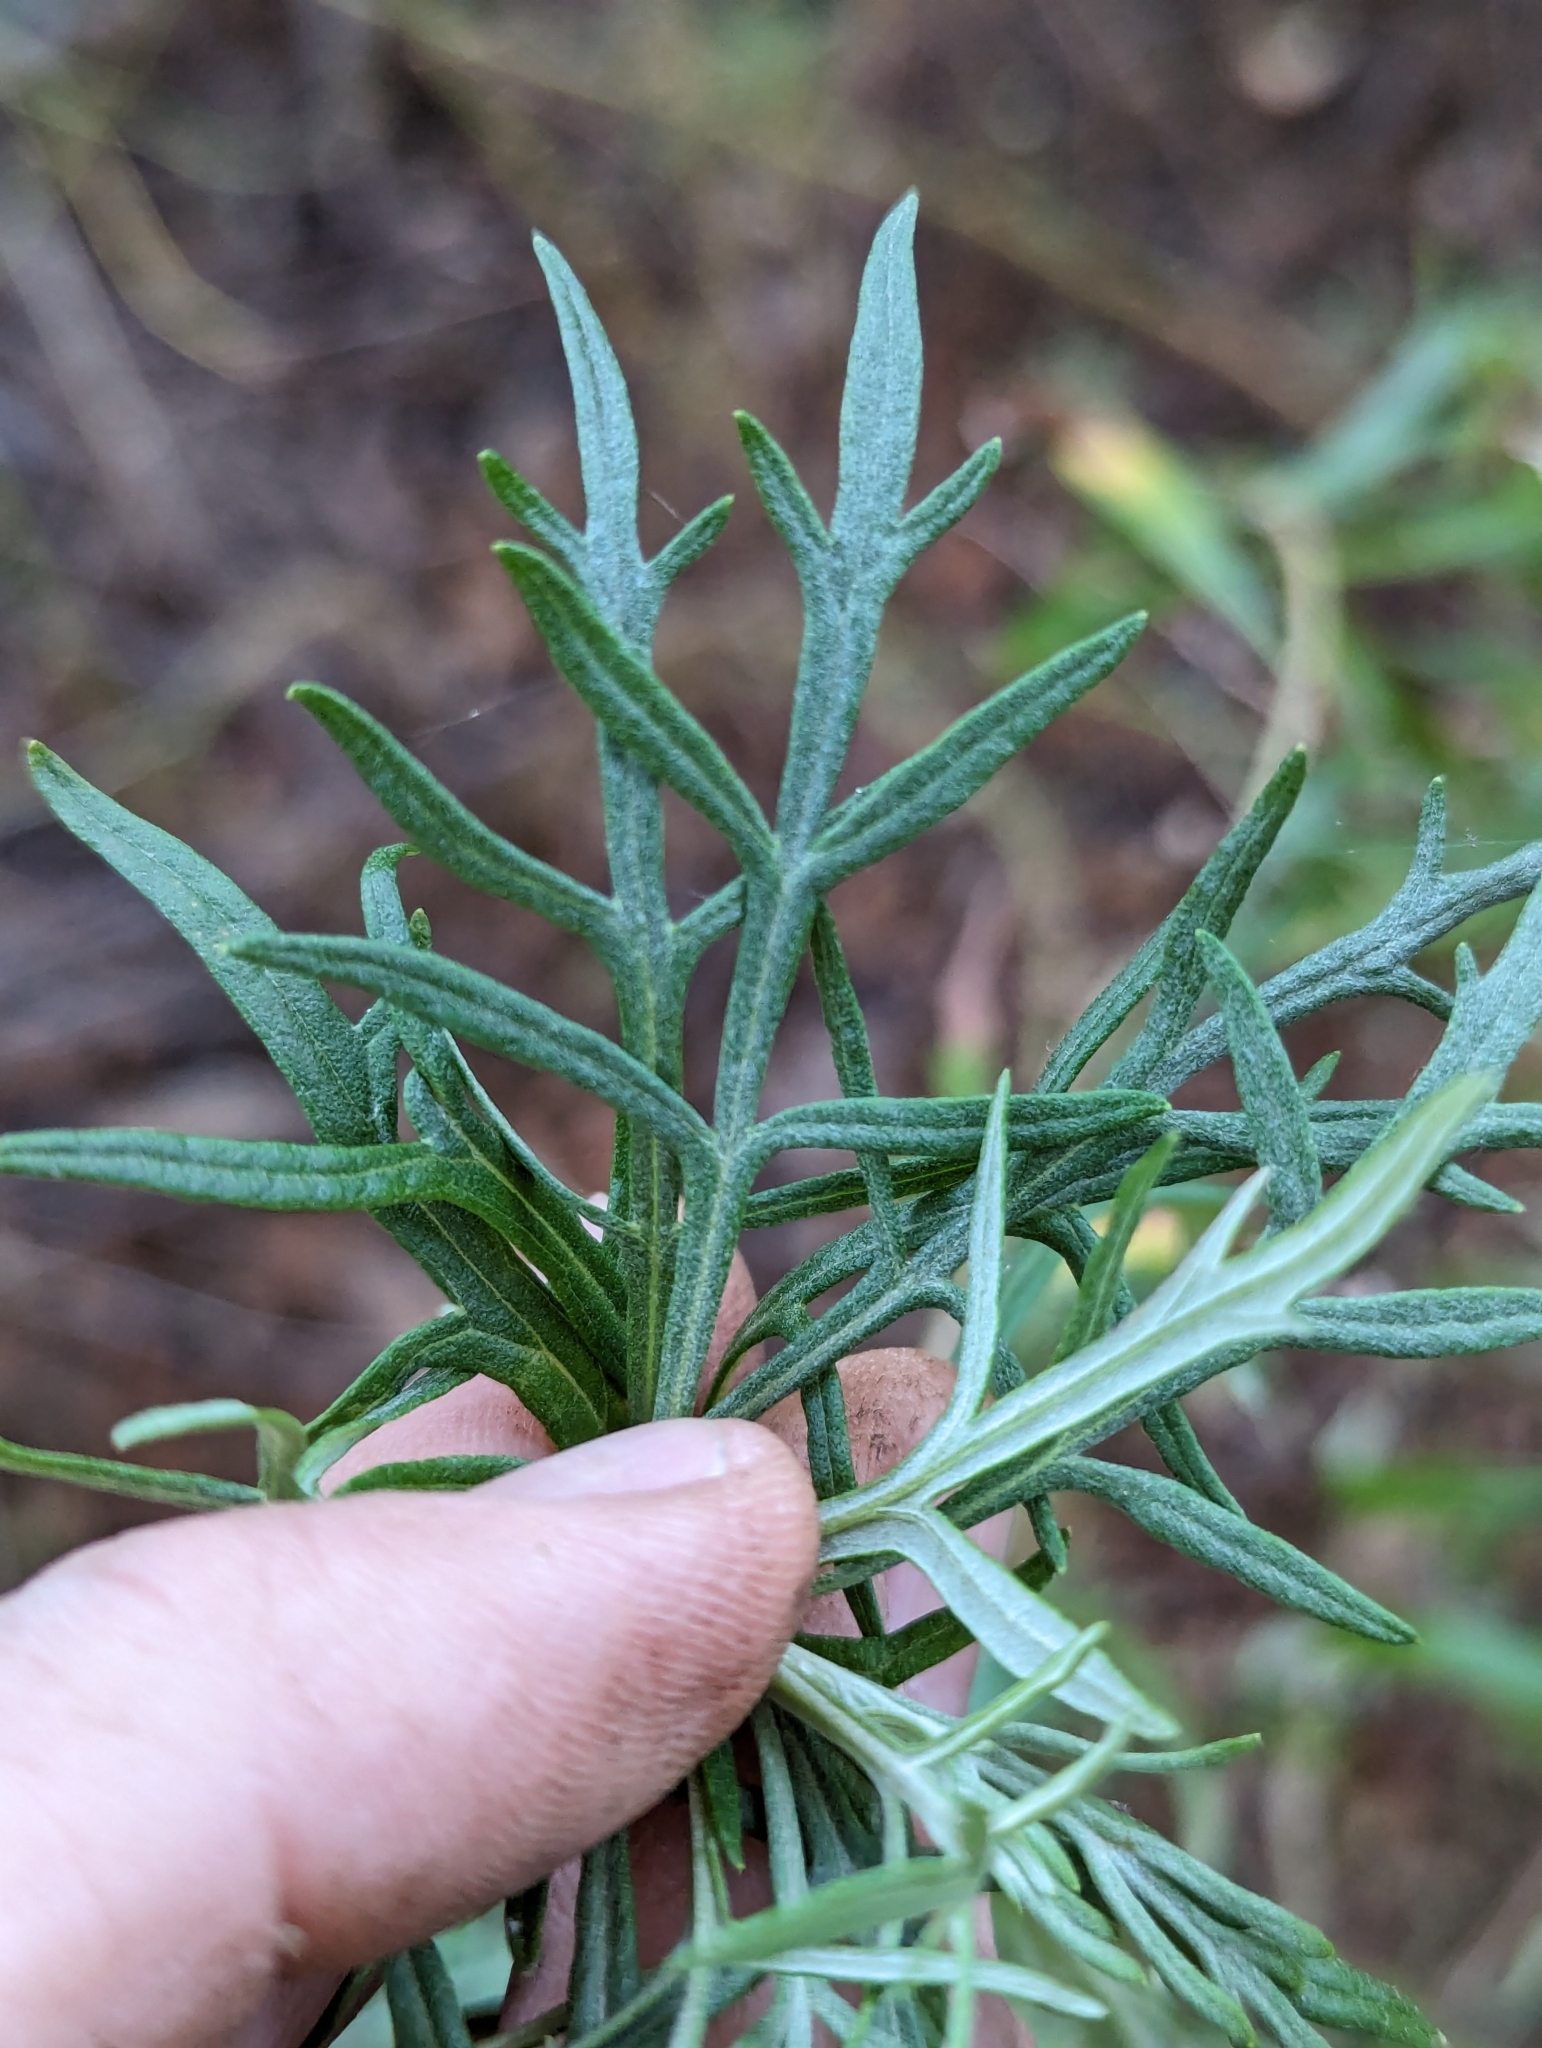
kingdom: Plantae
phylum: Tracheophyta
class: Magnoliopsida
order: Asterales
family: Asteraceae
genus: Artemisia
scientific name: Artemisia palmeri
